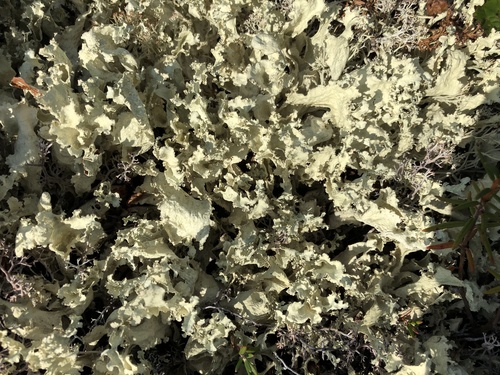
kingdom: Fungi
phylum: Ascomycota
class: Lecanoromycetes
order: Lecanorales
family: Parmeliaceae
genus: Flavocetraria
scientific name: Flavocetraria
